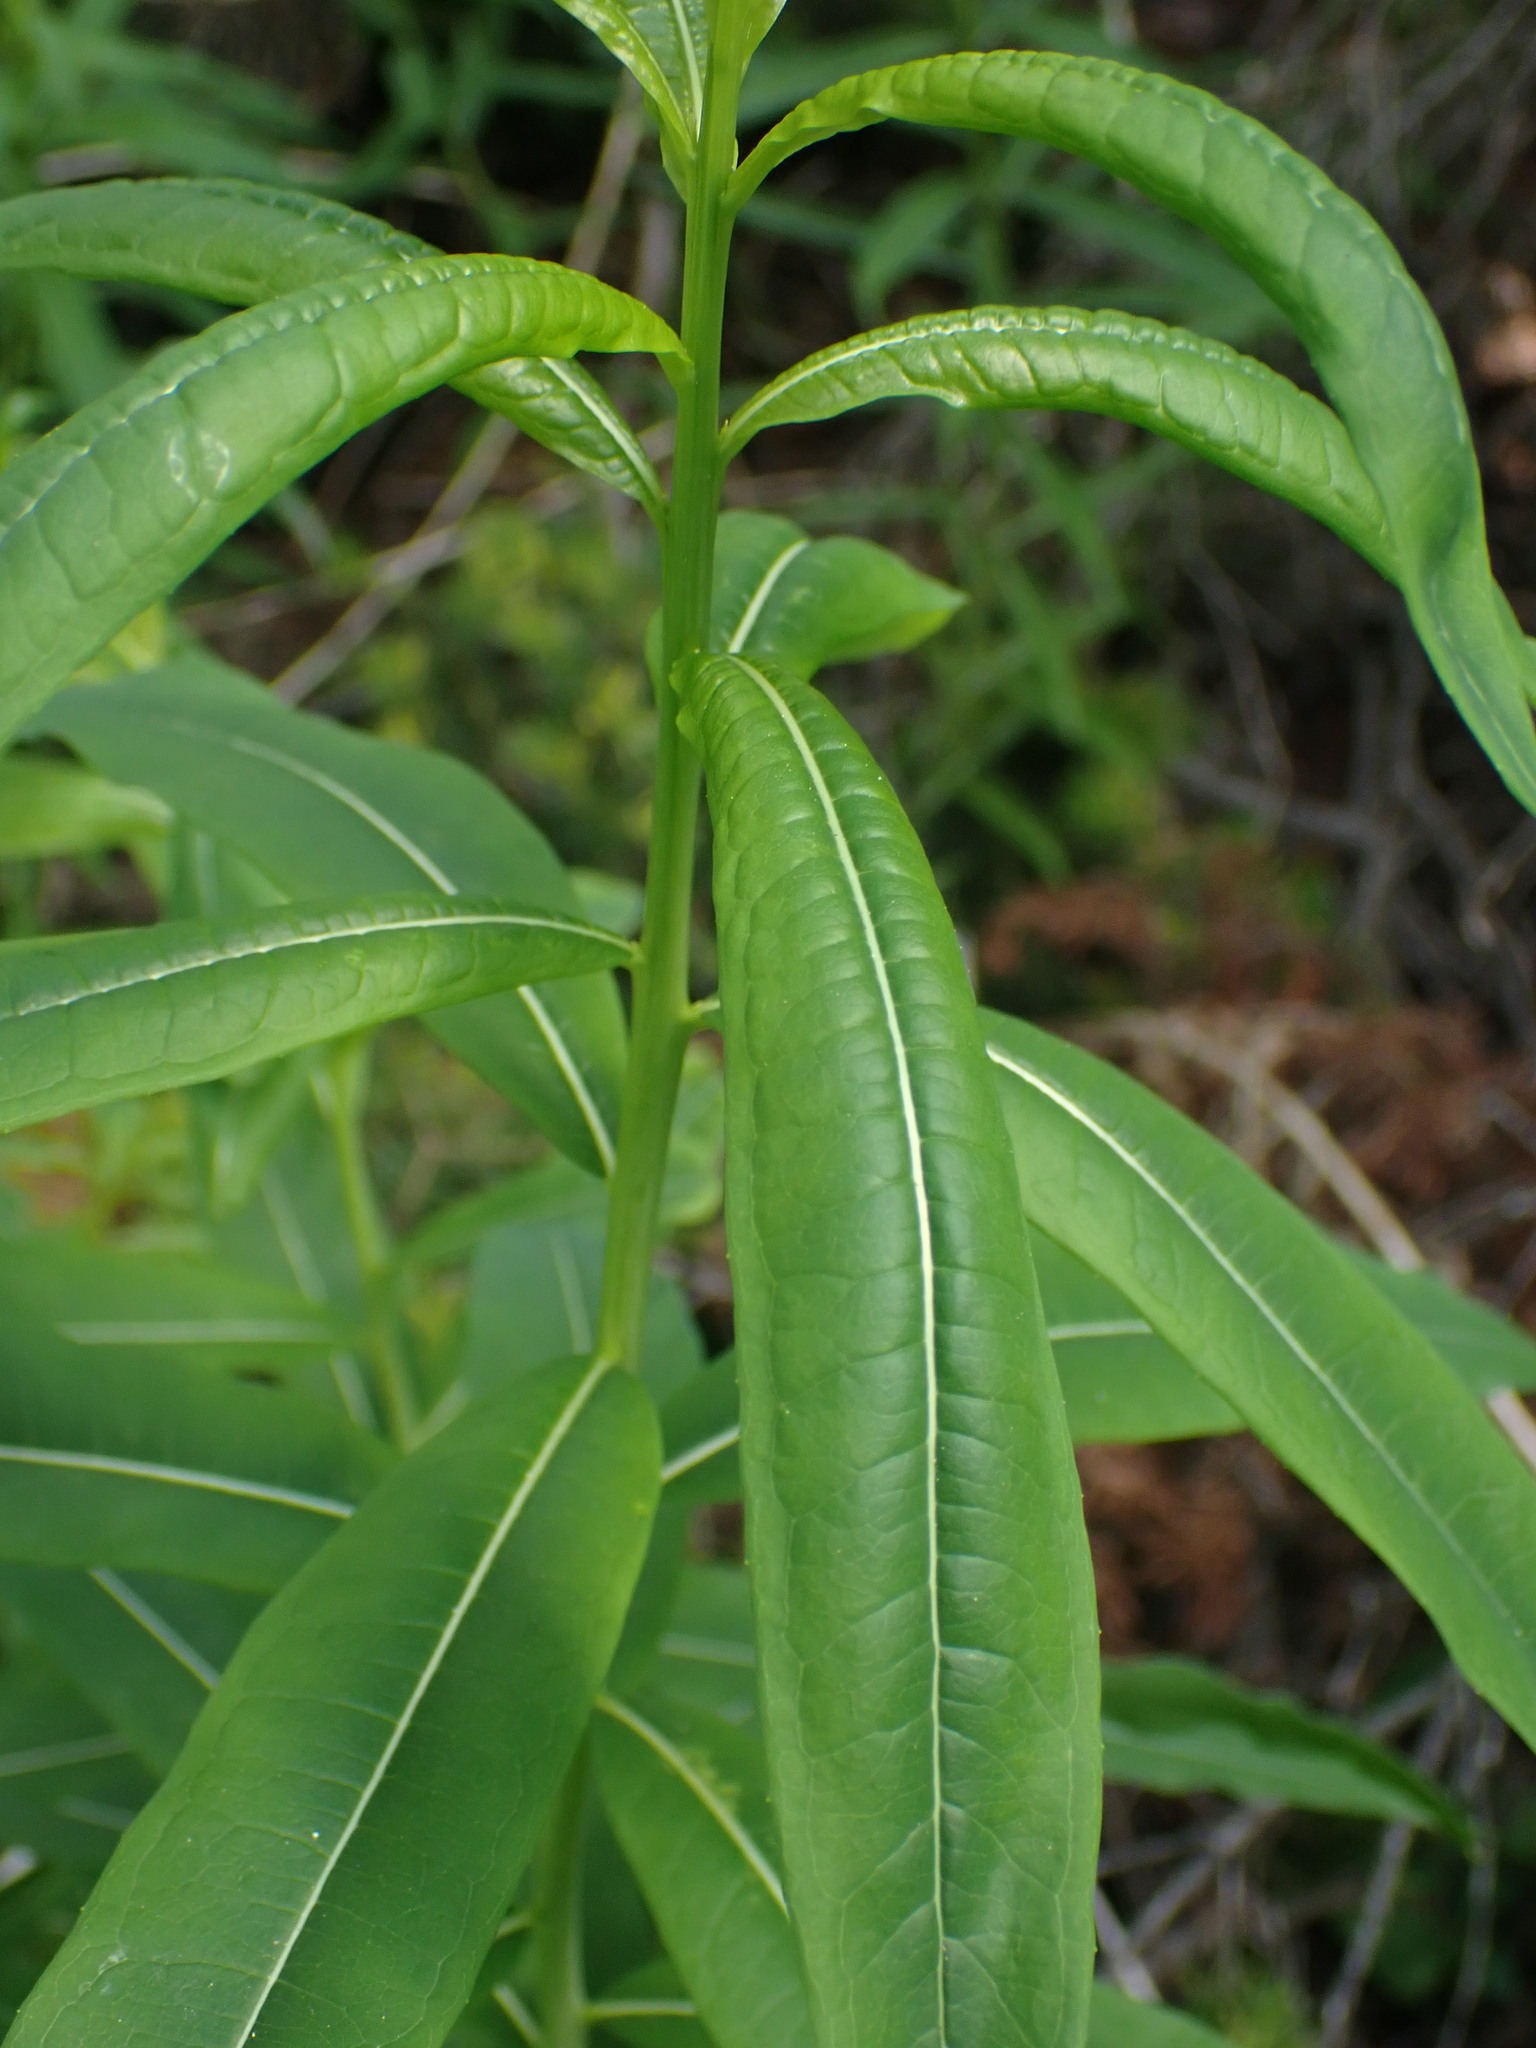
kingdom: Plantae
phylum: Tracheophyta
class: Magnoliopsida
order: Myrtales
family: Onagraceae
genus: Chamaenerion
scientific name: Chamaenerion angustifolium
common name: Fireweed
